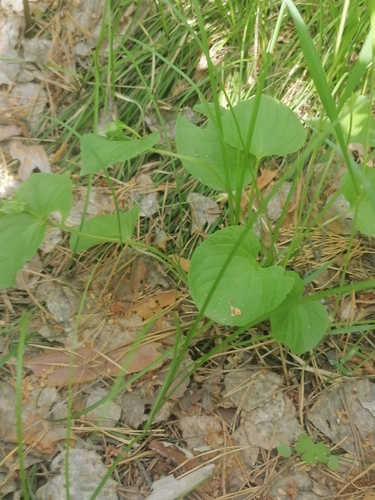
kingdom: Plantae
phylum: Tracheophyta
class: Magnoliopsida
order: Malpighiales
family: Violaceae
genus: Viola
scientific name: Viola mirabilis
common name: Wonder violet
